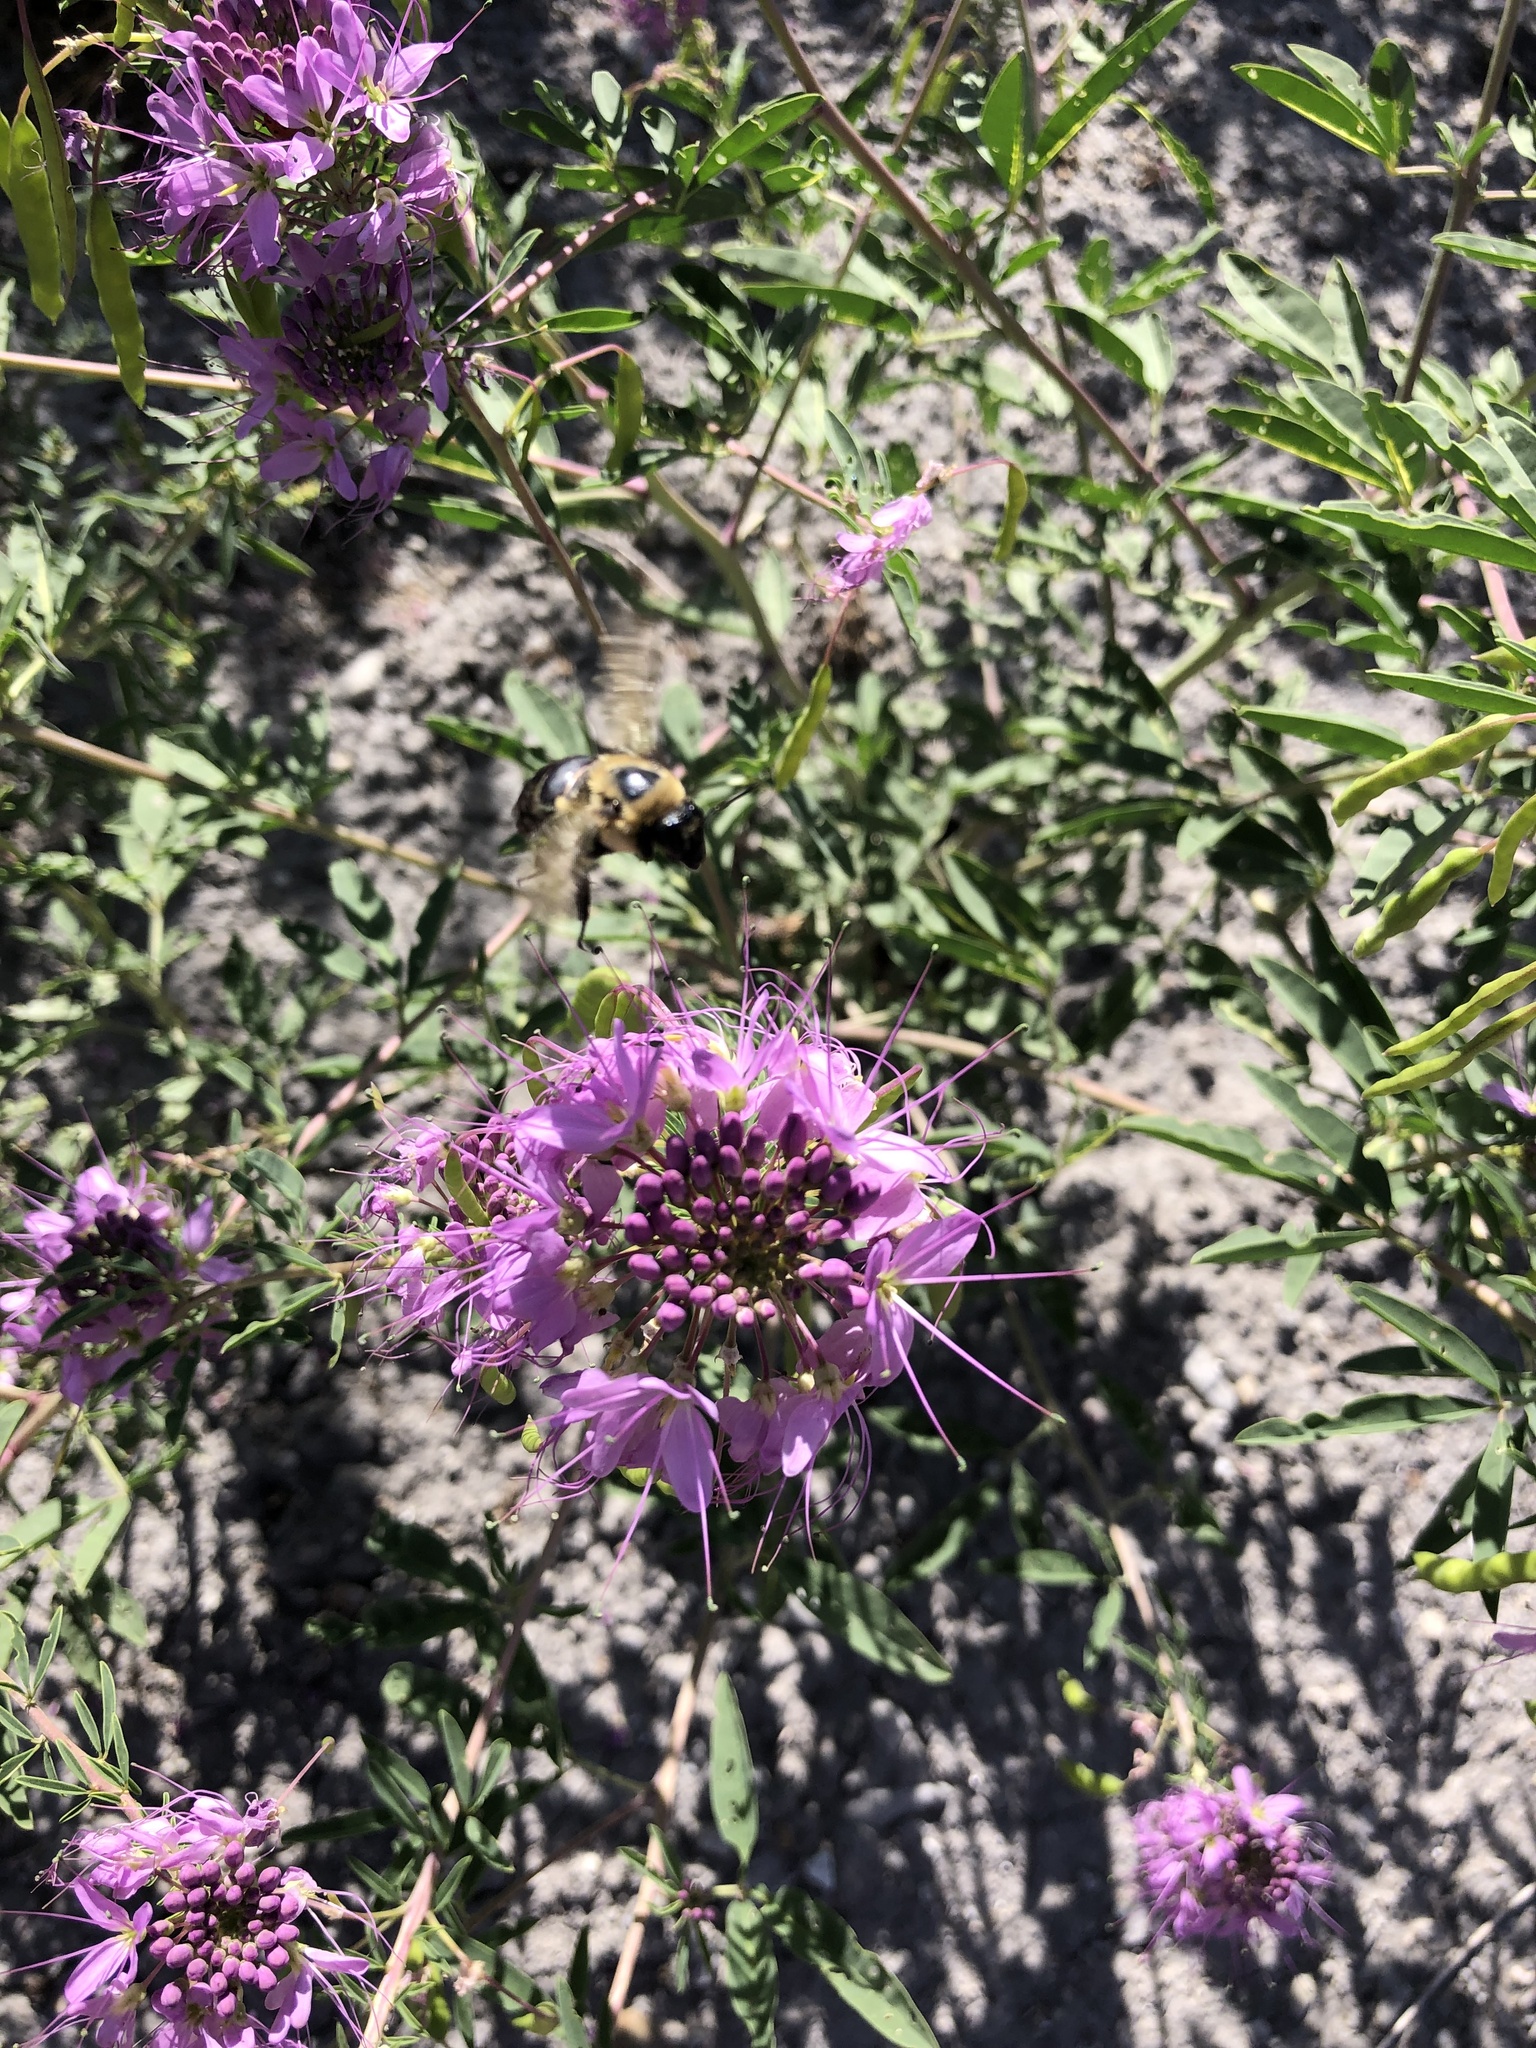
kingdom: Plantae
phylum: Tracheophyta
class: Magnoliopsida
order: Brassicales
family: Cleomaceae
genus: Cleomella
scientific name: Cleomella serrulata
